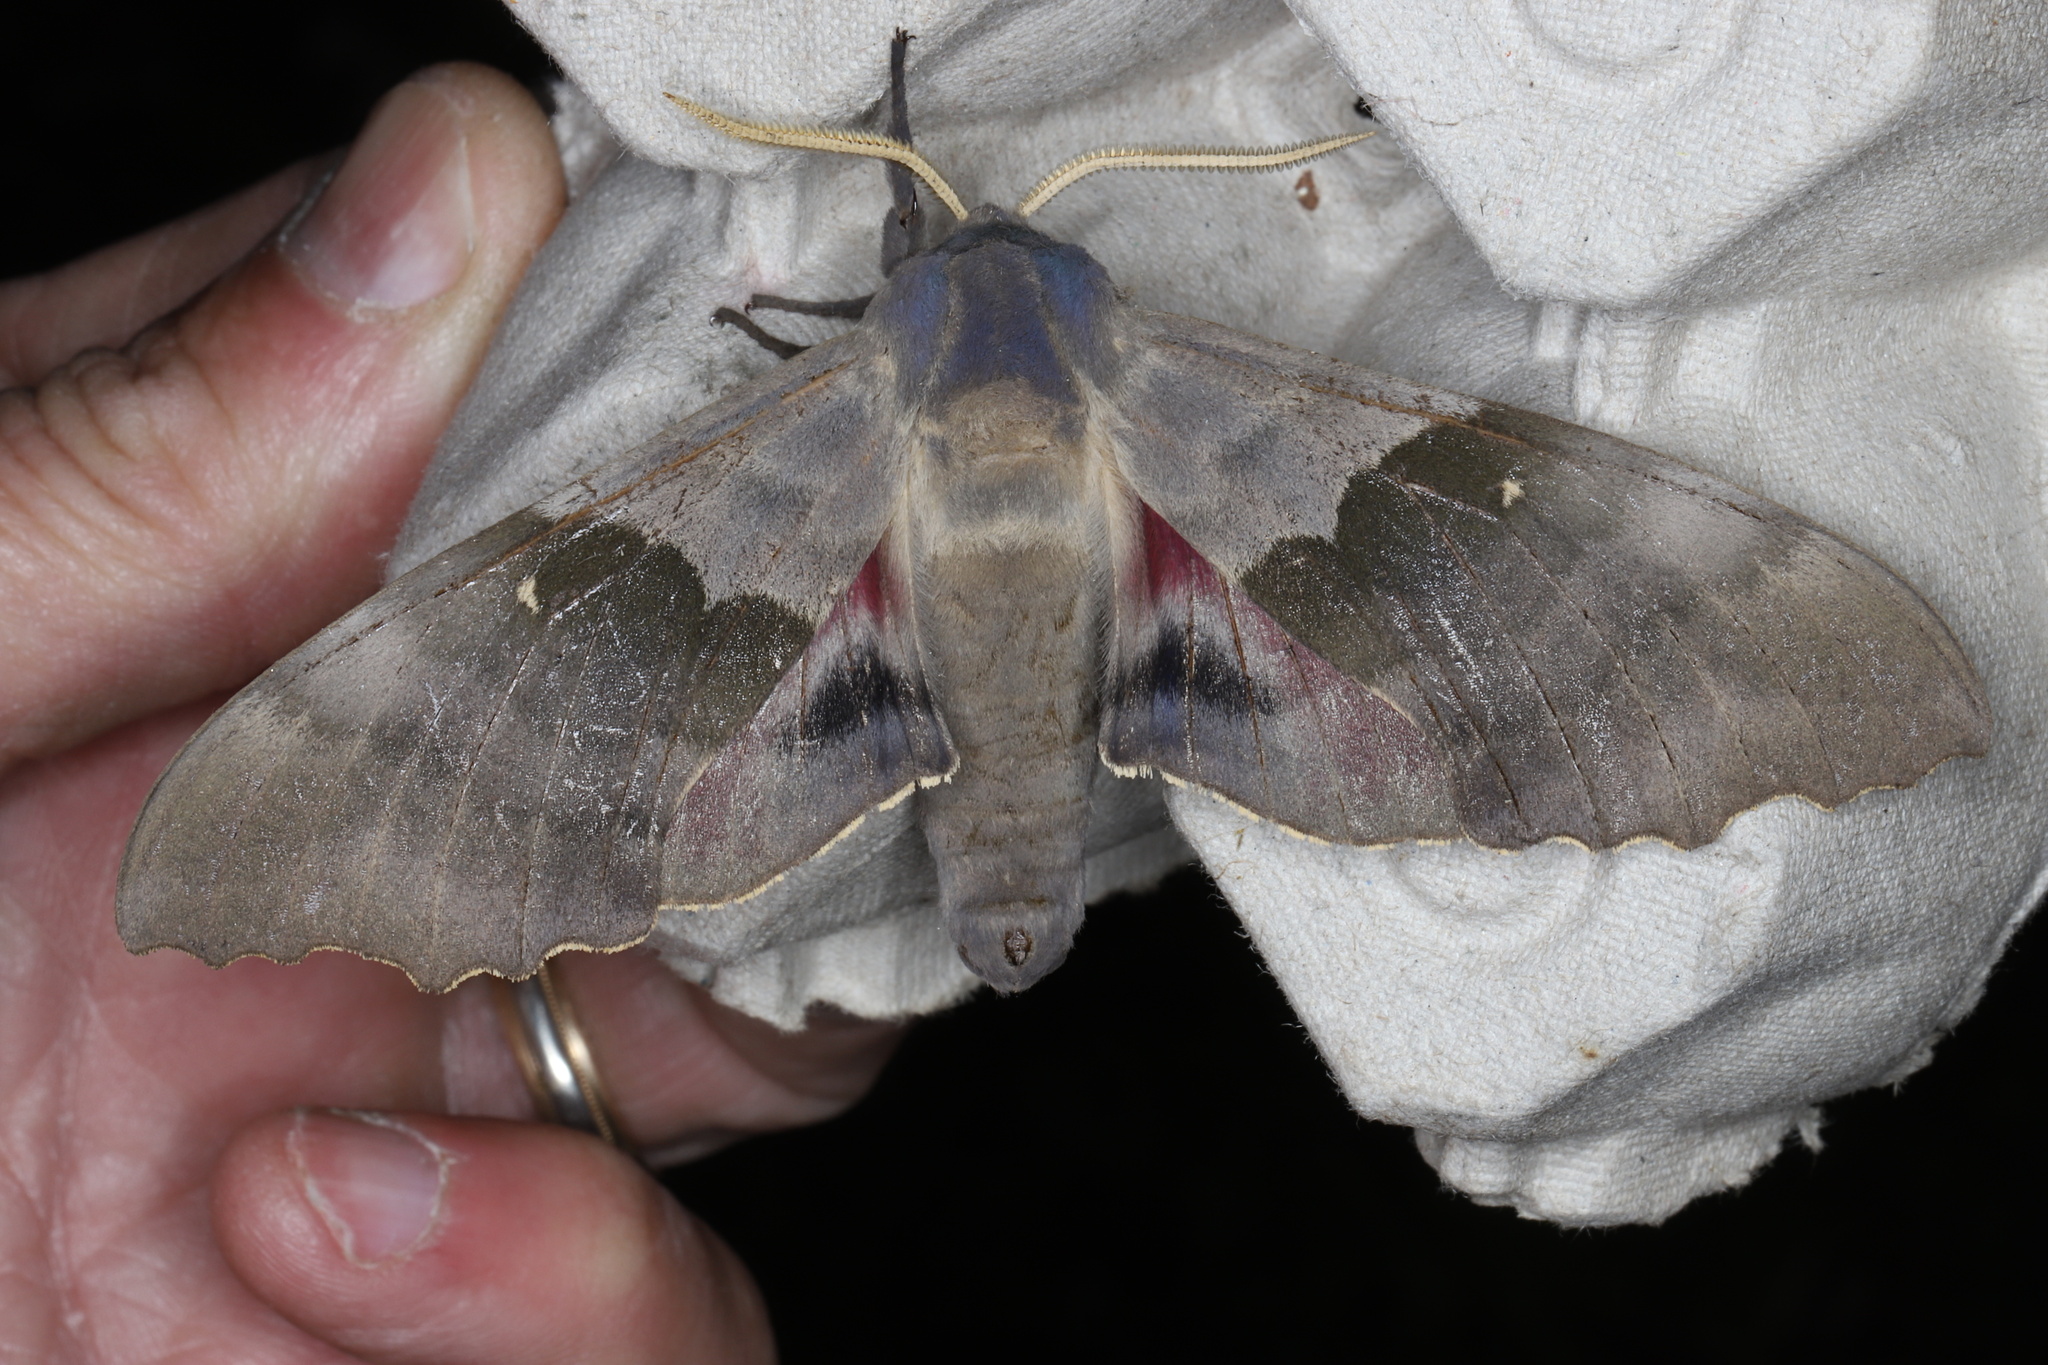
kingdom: Animalia
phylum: Arthropoda
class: Insecta
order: Lepidoptera
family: Sphingidae
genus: Pachysphinx
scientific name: Pachysphinx modesta
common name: Big poplar sphinx
